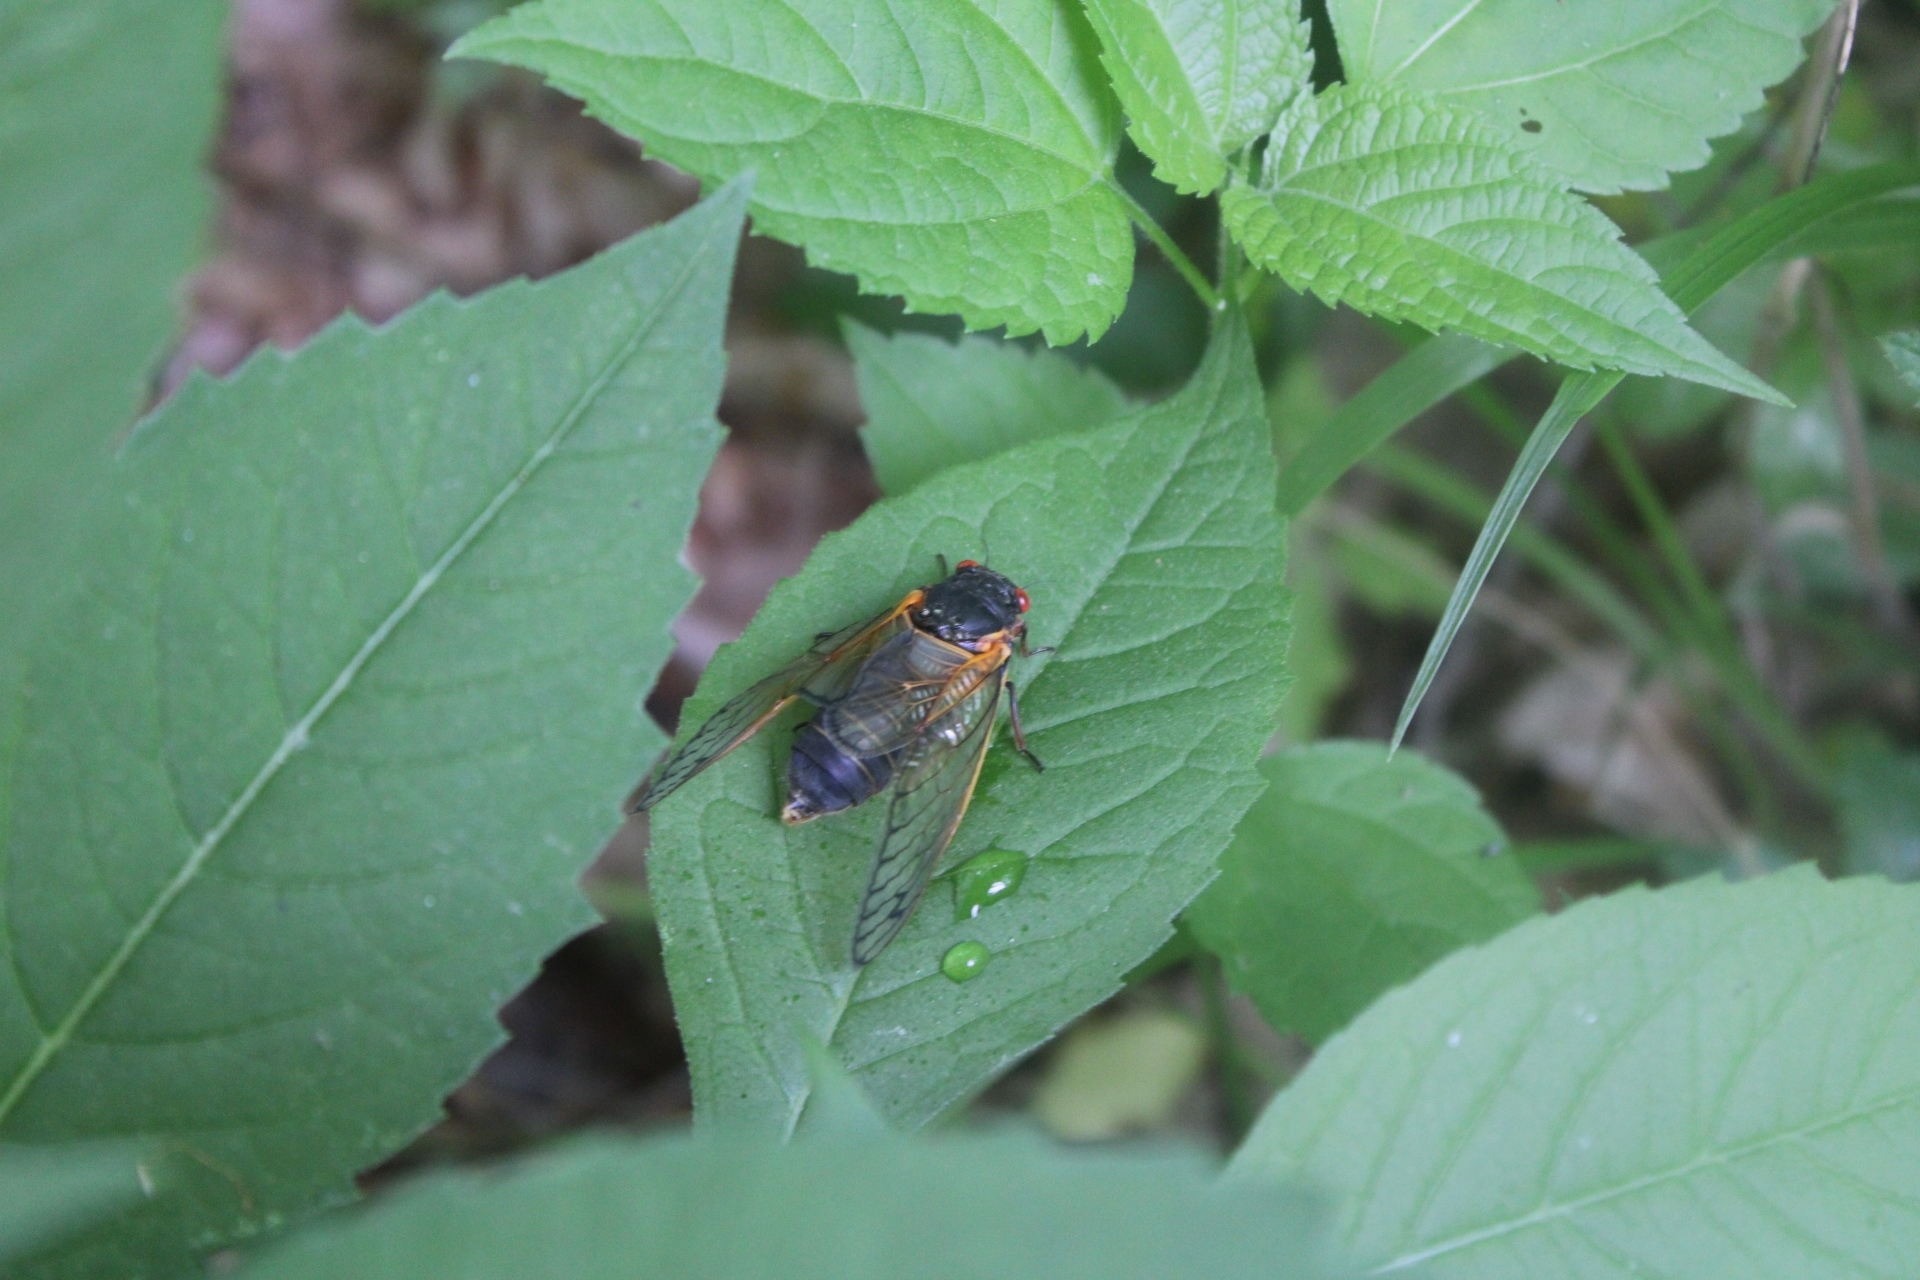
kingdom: Animalia
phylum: Arthropoda
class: Insecta
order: Hemiptera
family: Cicadidae
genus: Magicicada
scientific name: Magicicada
